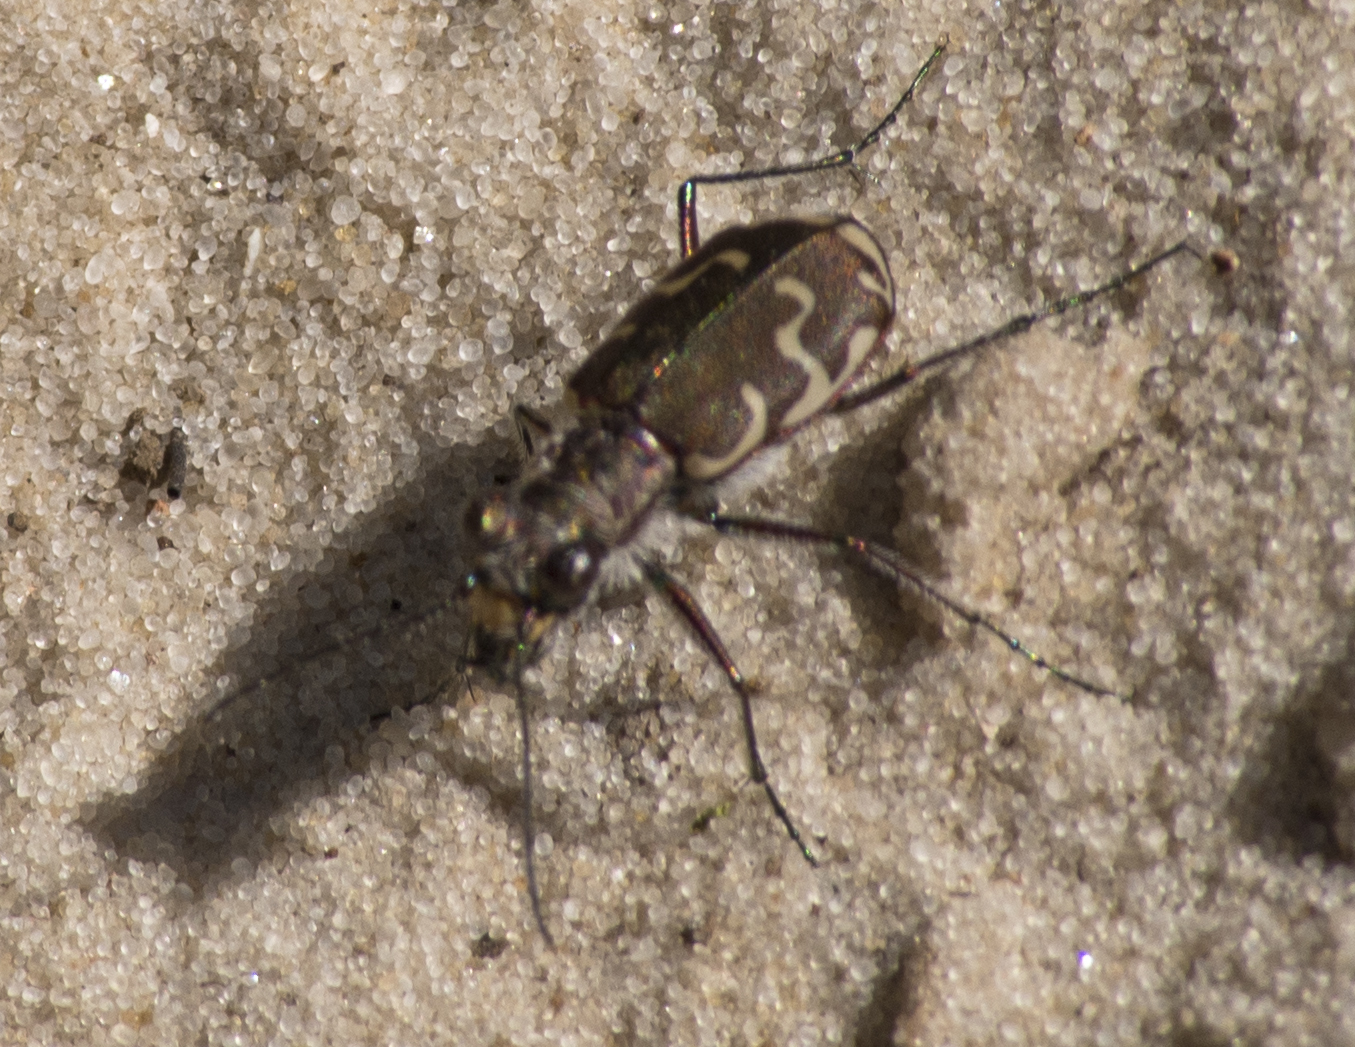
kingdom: Animalia
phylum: Arthropoda
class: Insecta
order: Coleoptera
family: Carabidae
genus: Cicindela
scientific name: Cicindela repanda
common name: Bronzed tiger beetle
